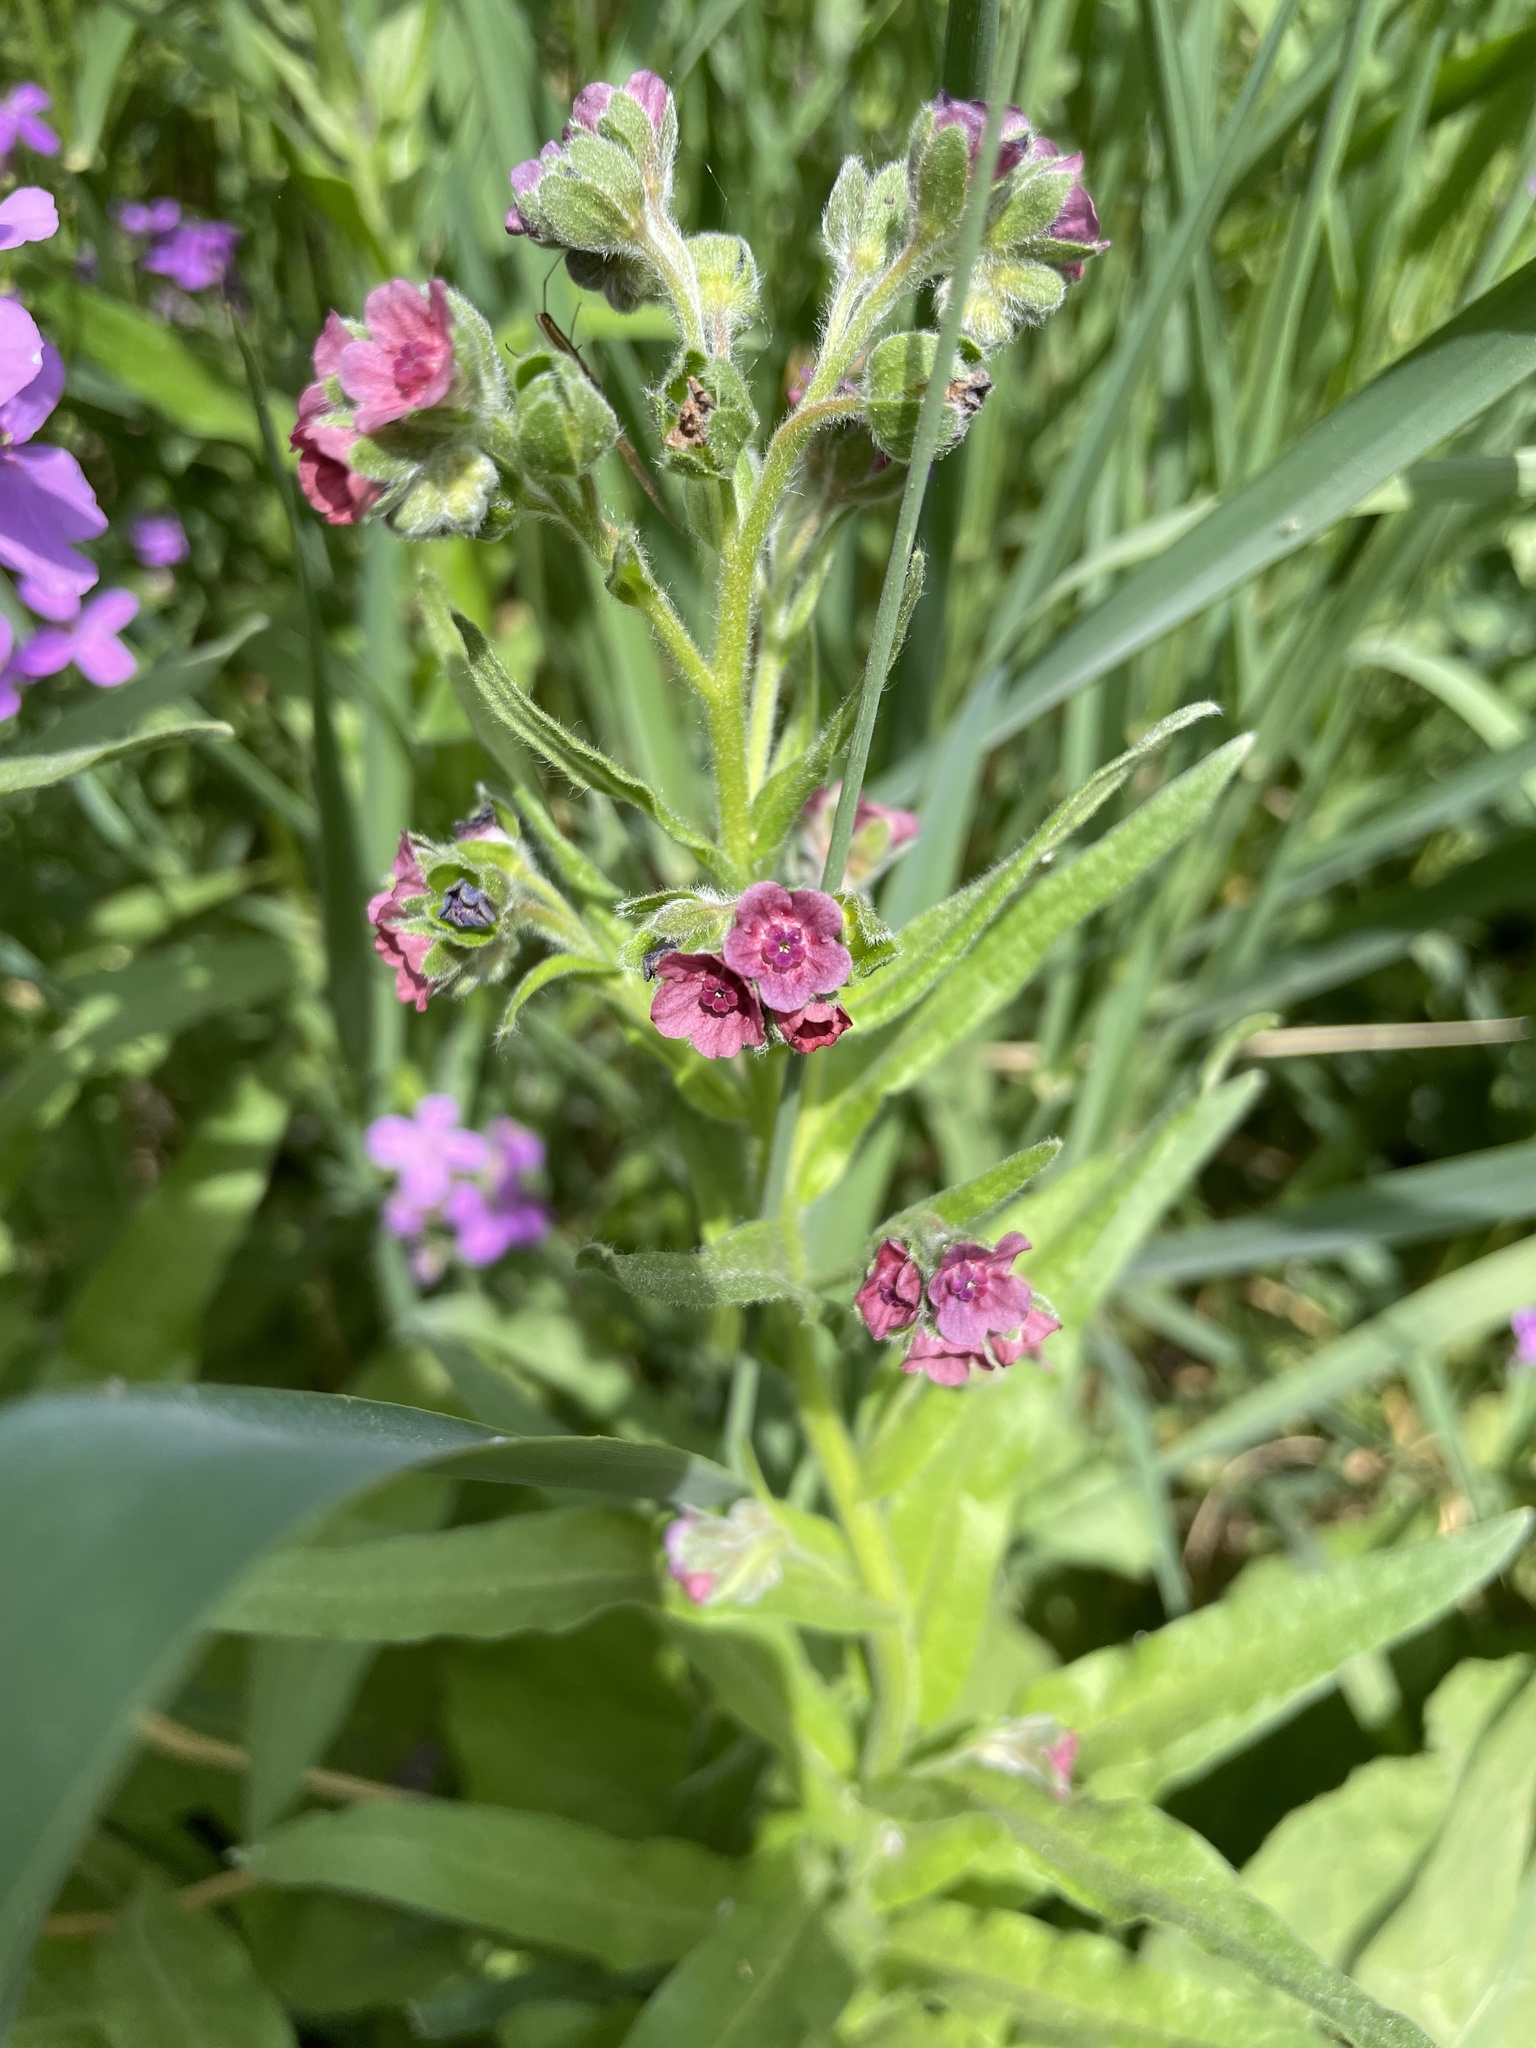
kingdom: Plantae
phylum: Tracheophyta
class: Magnoliopsida
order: Boraginales
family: Boraginaceae
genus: Cynoglossum
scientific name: Cynoglossum officinale
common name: Hound's-tongue
